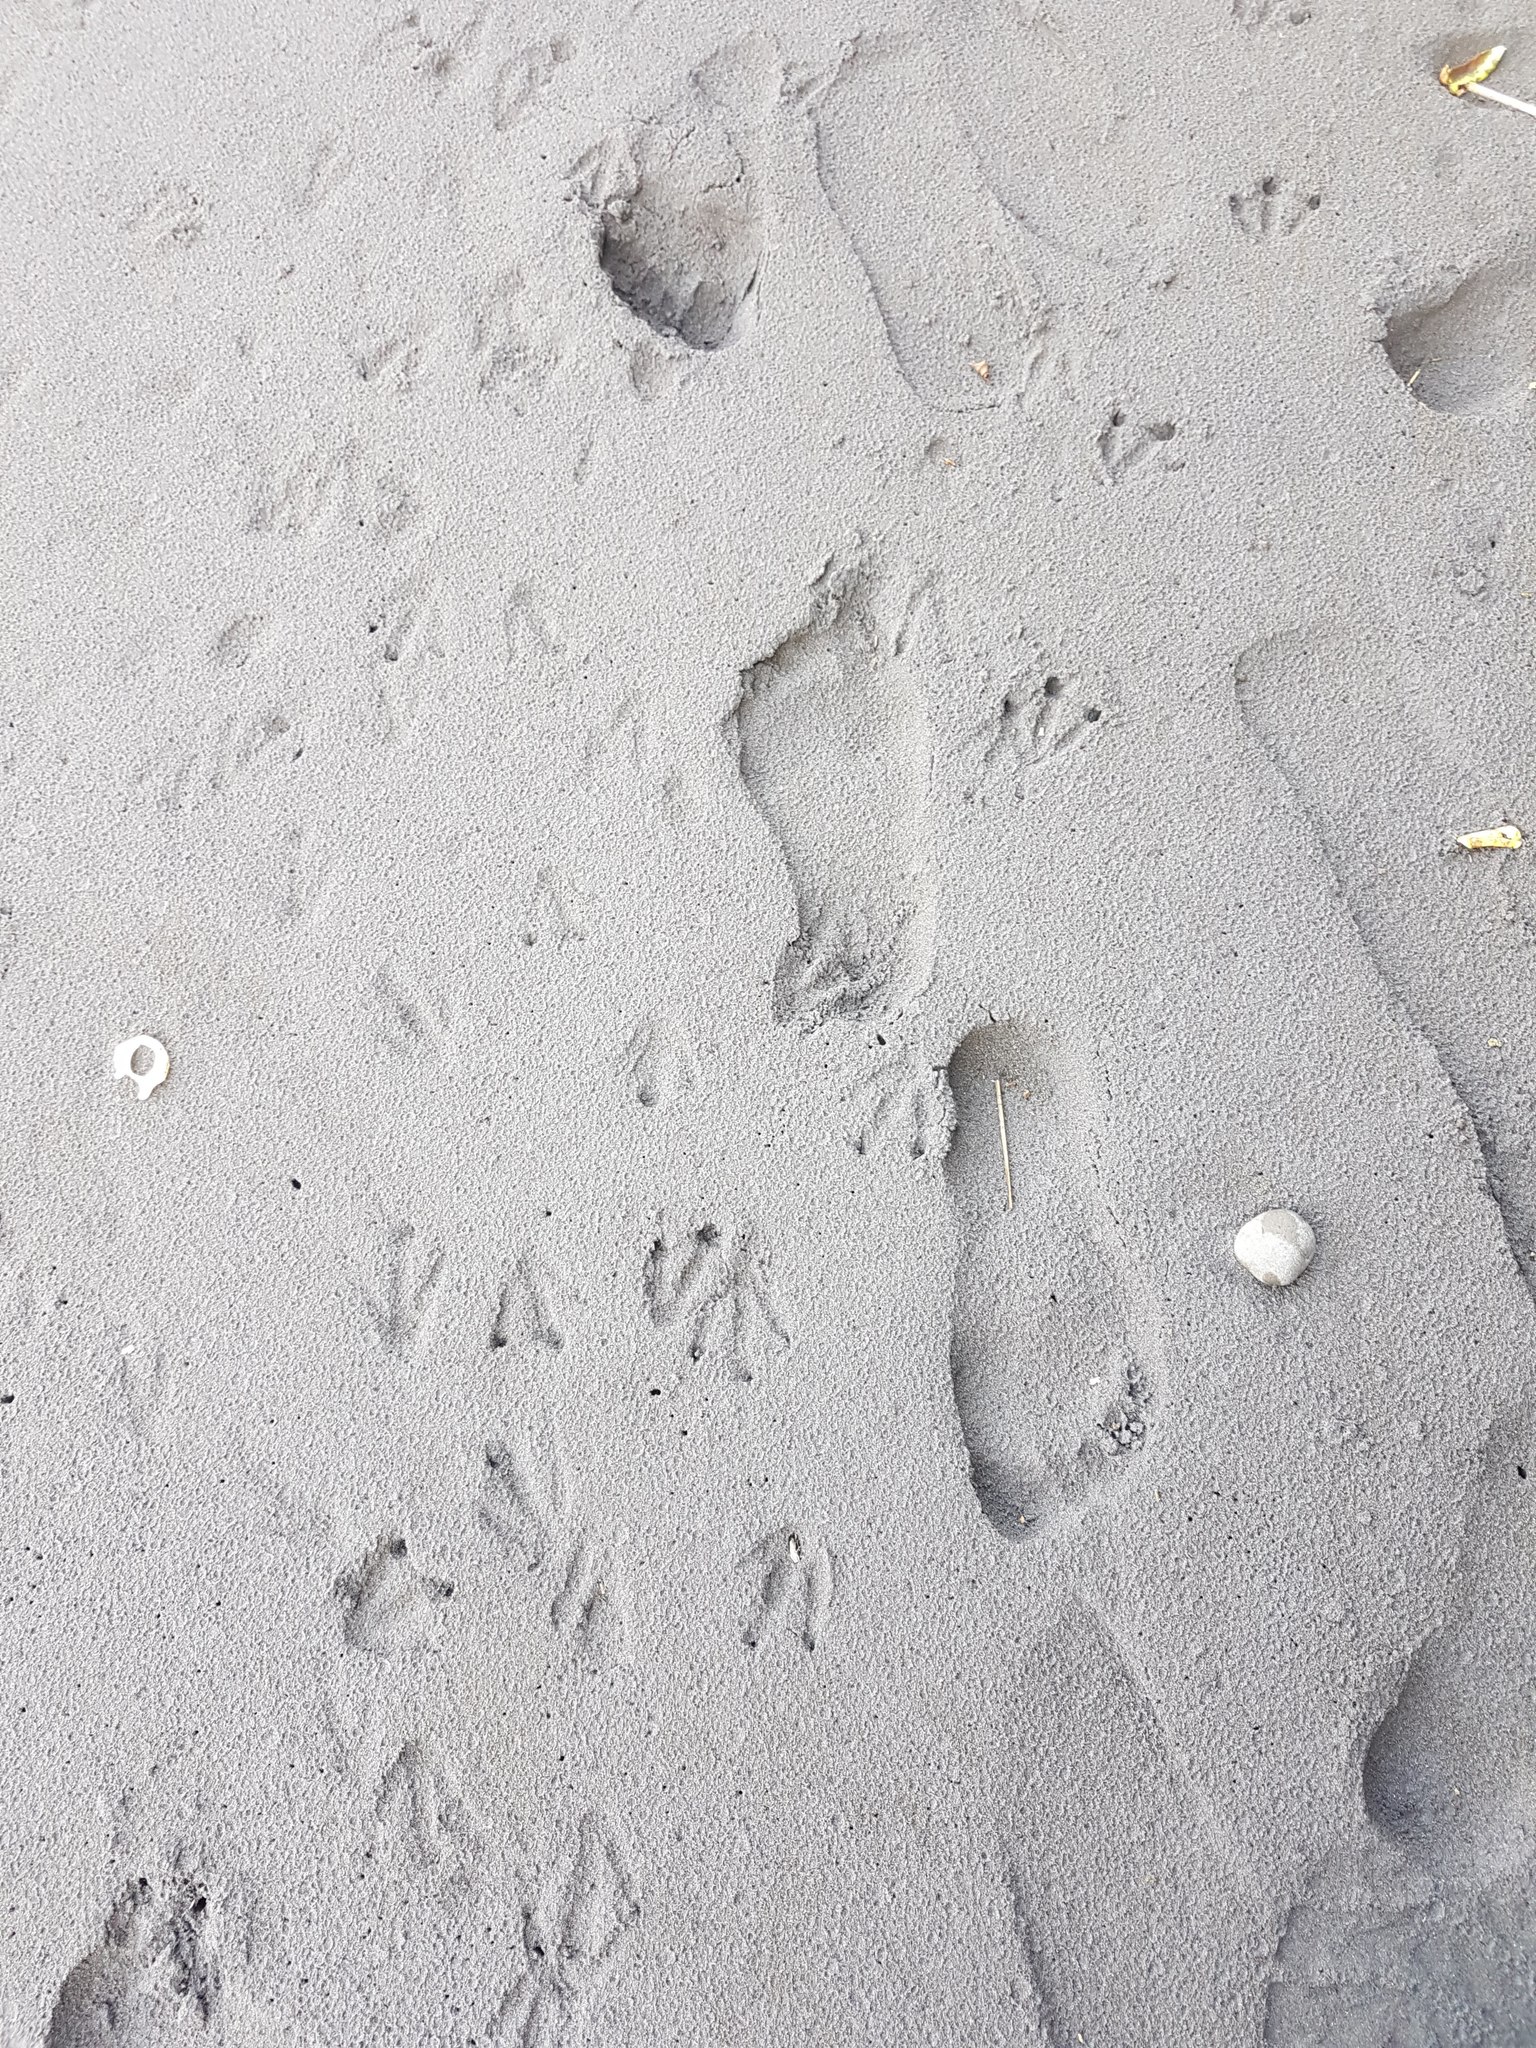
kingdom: Animalia
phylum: Chordata
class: Aves
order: Sphenisciformes
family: Spheniscidae
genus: Eudyptula
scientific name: Eudyptula minor
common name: Little penguin
